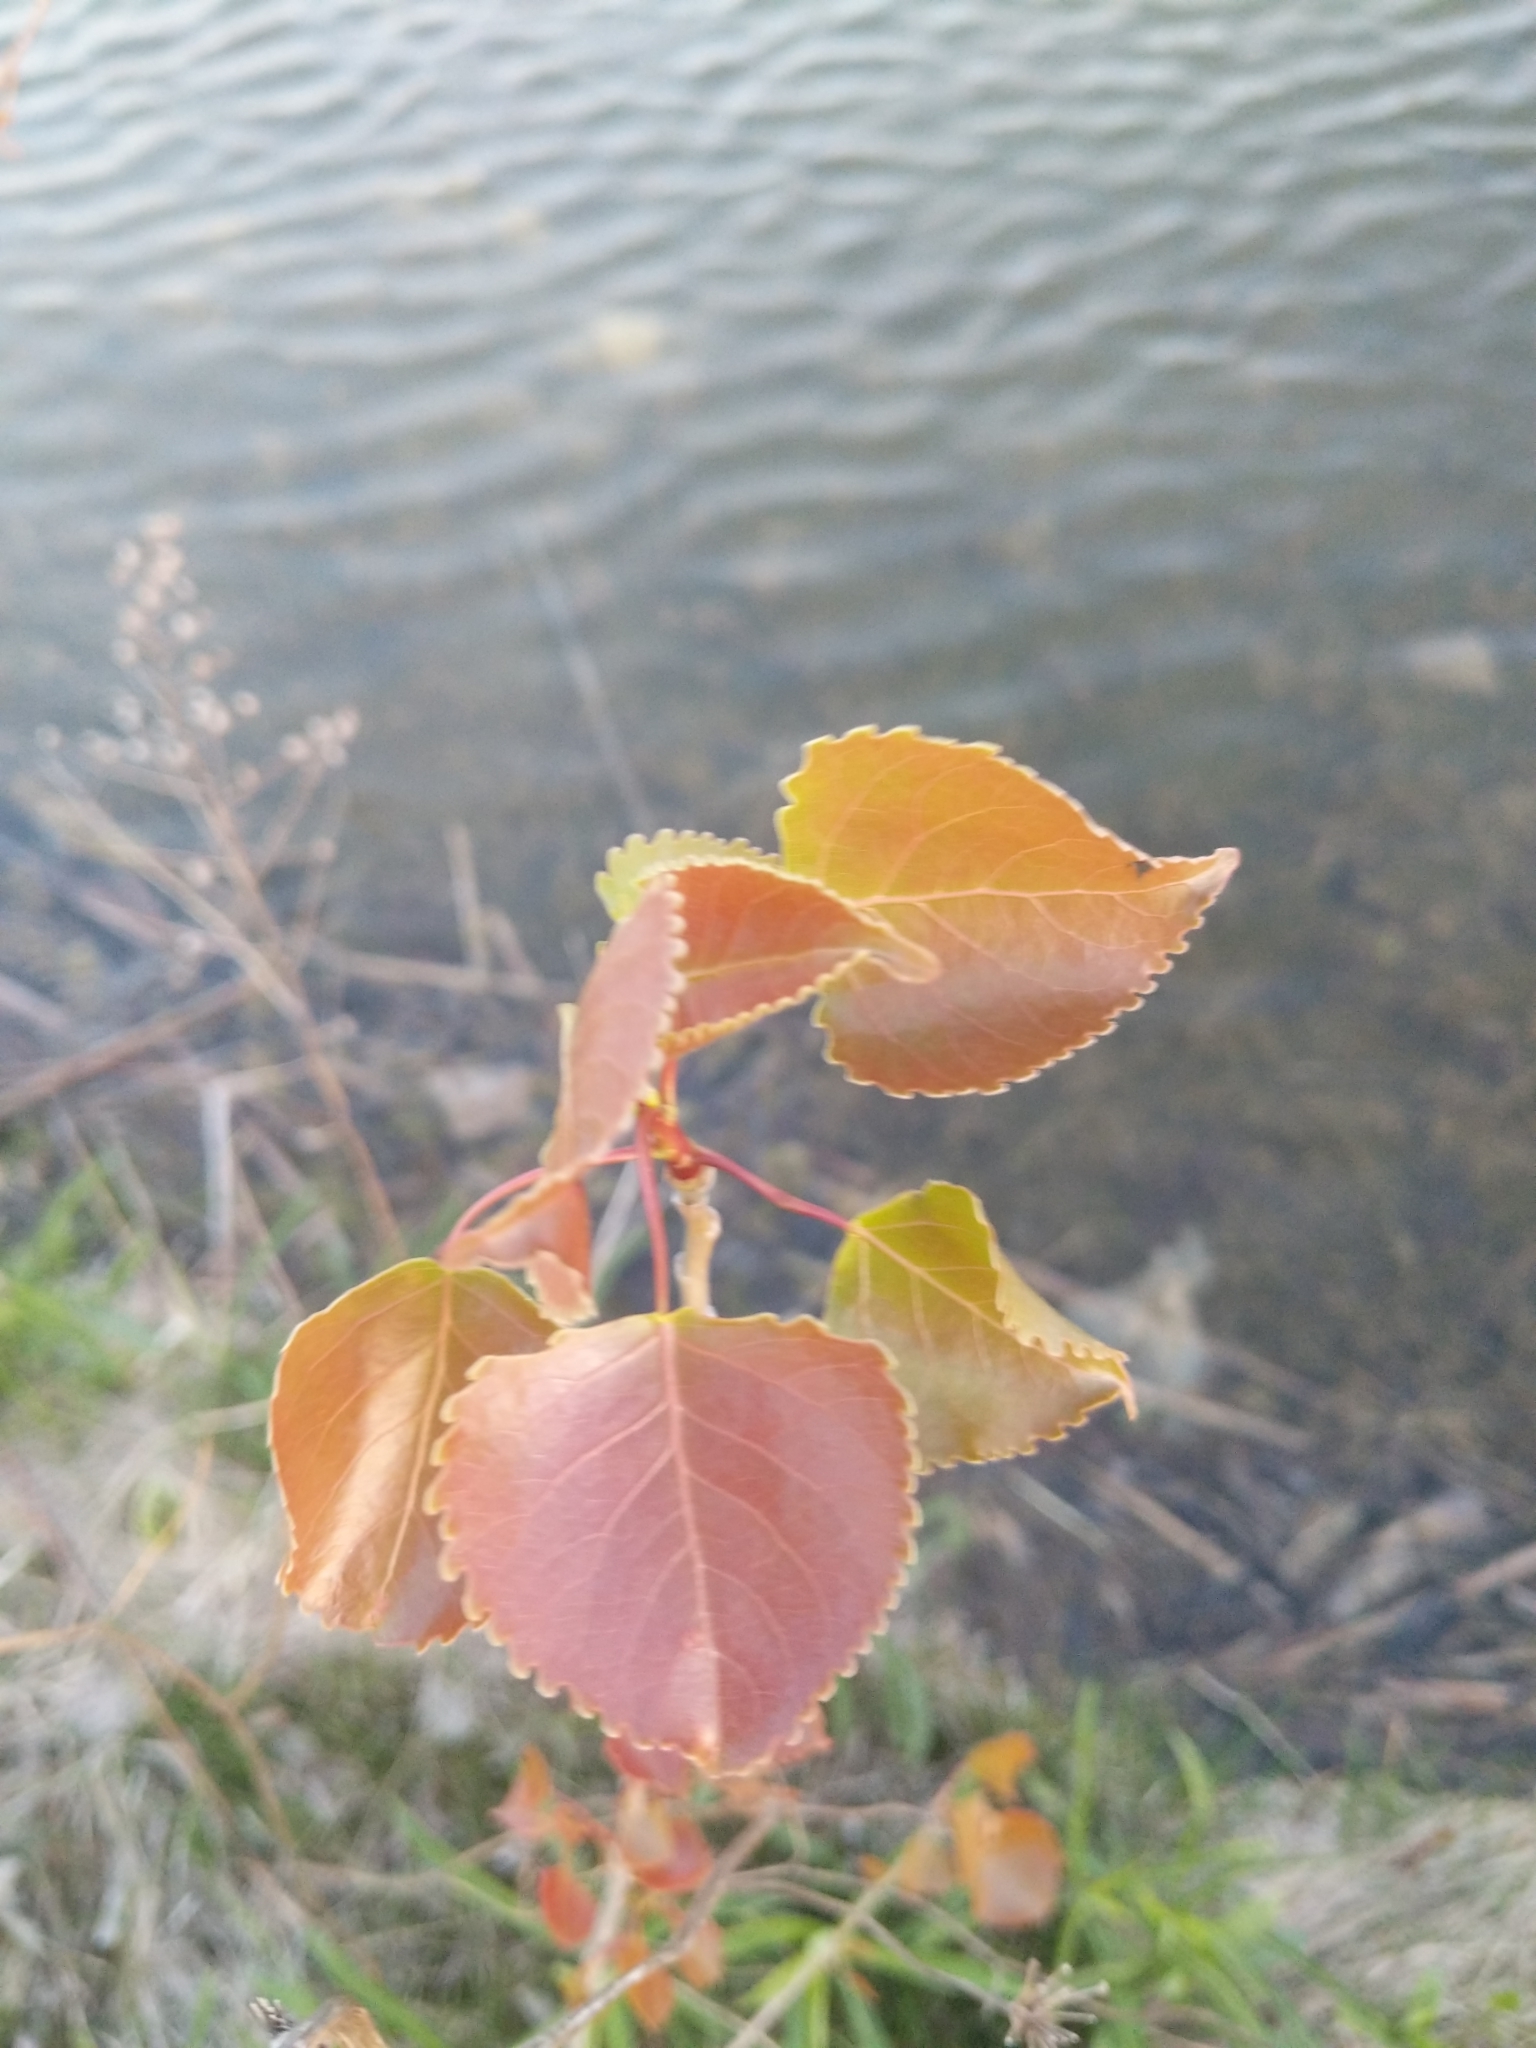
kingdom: Plantae
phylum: Tracheophyta
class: Magnoliopsida
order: Malpighiales
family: Salicaceae
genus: Populus
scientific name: Populus deltoides
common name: Eastern cottonwood
